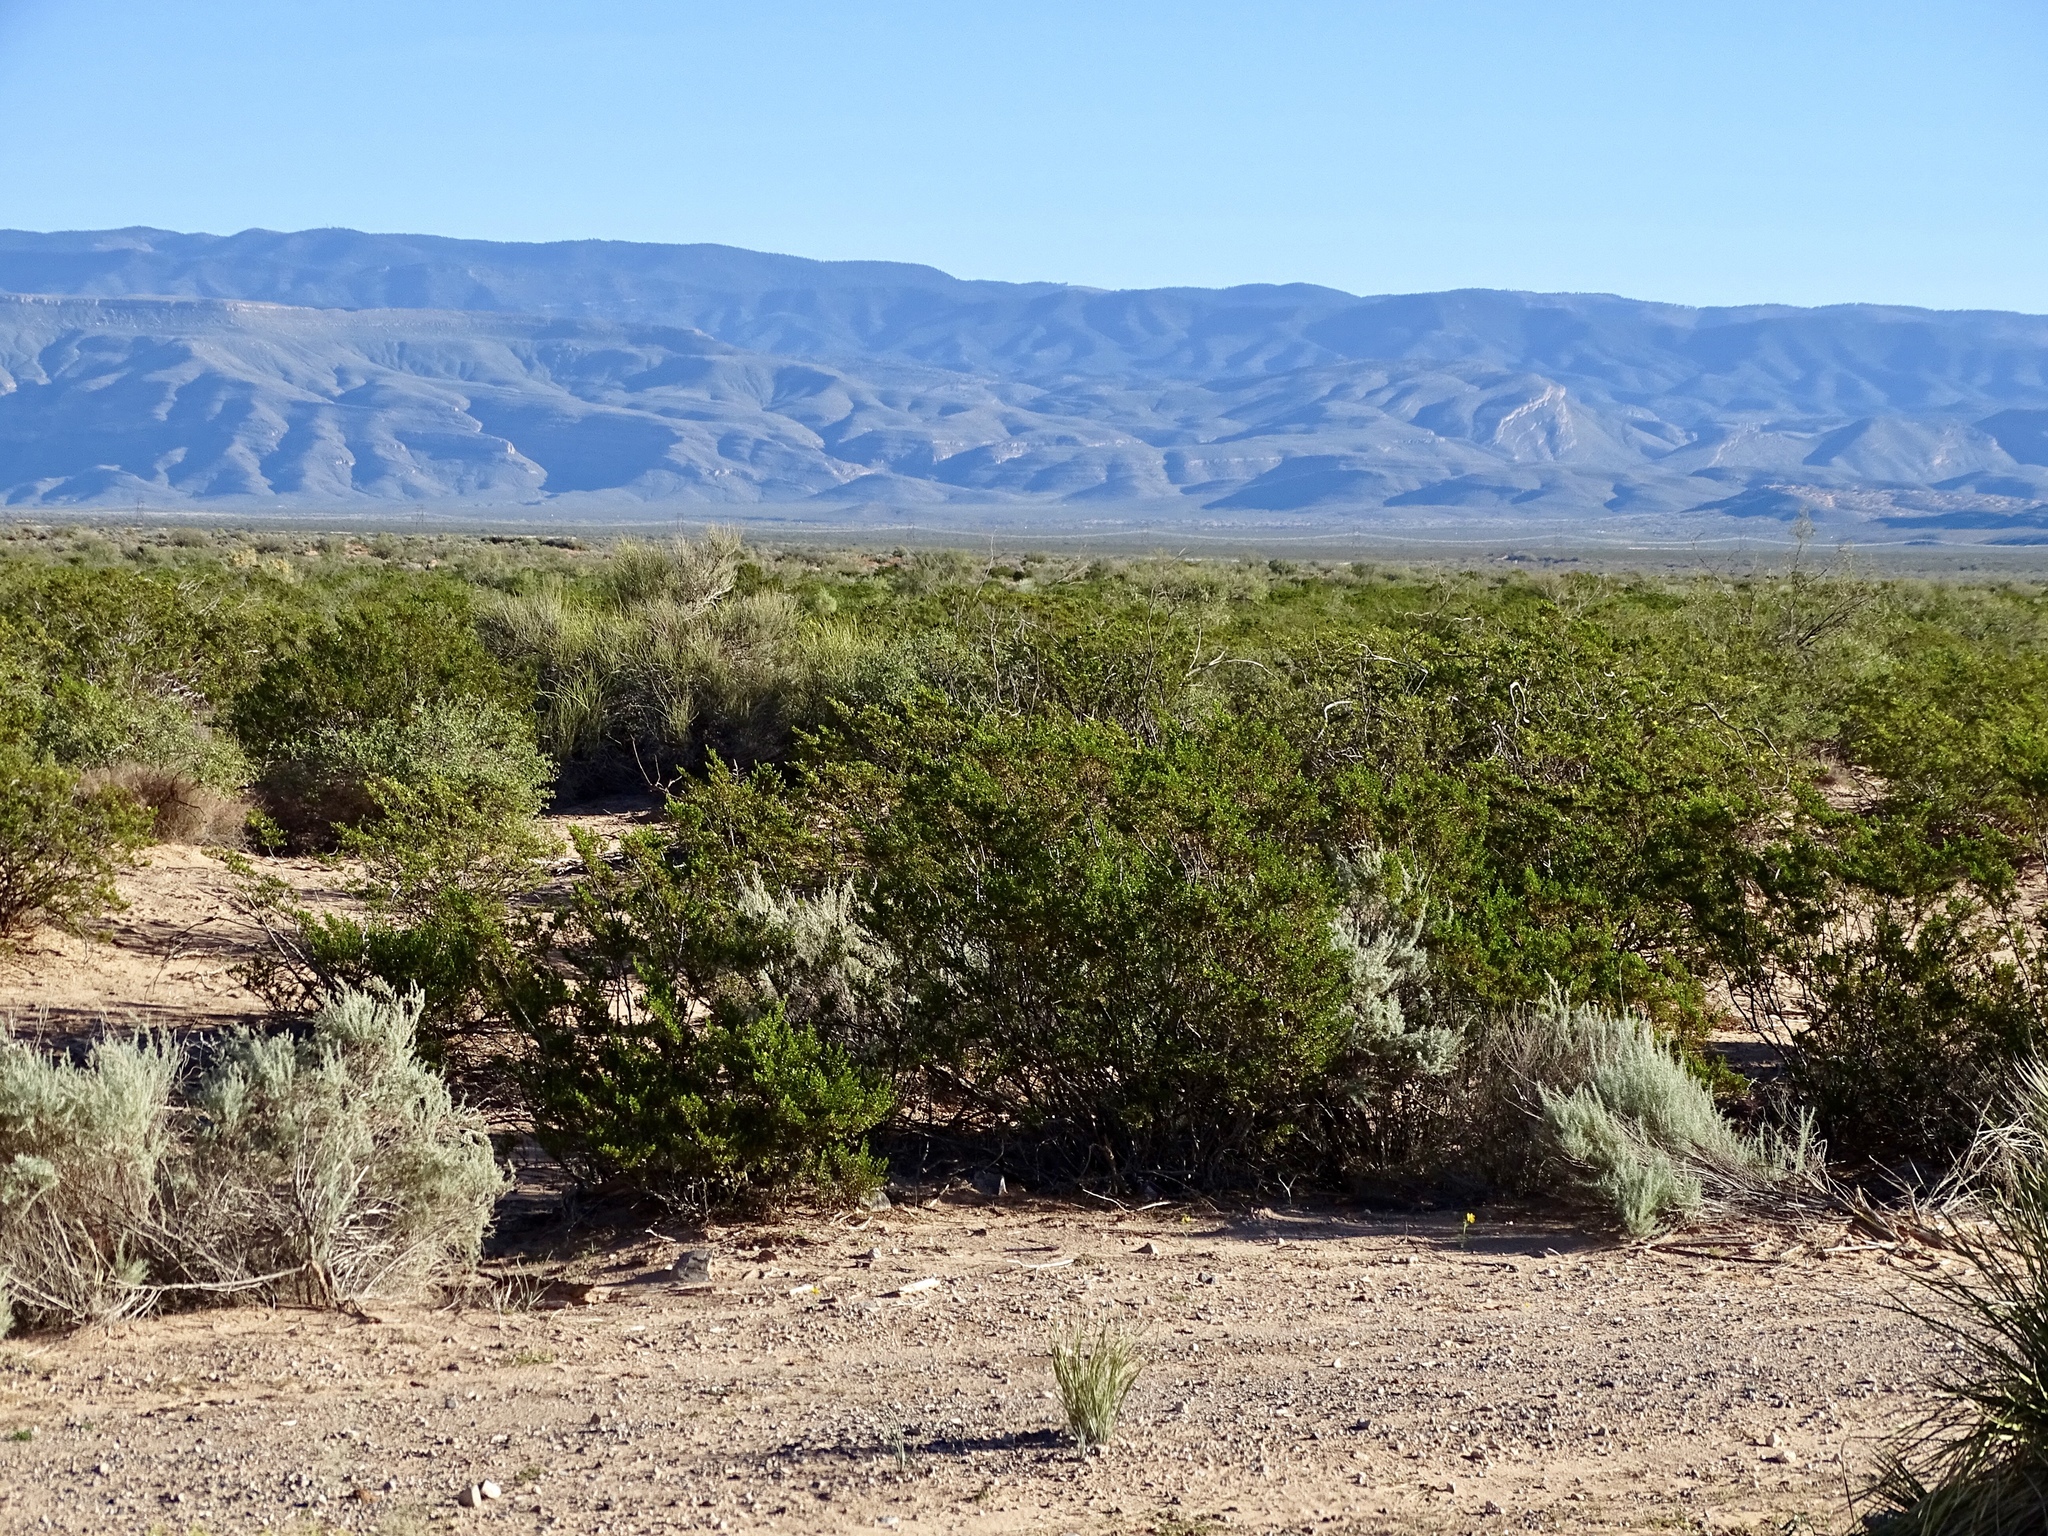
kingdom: Plantae
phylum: Tracheophyta
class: Magnoliopsida
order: Zygophyllales
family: Zygophyllaceae
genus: Larrea
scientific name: Larrea tridentata
